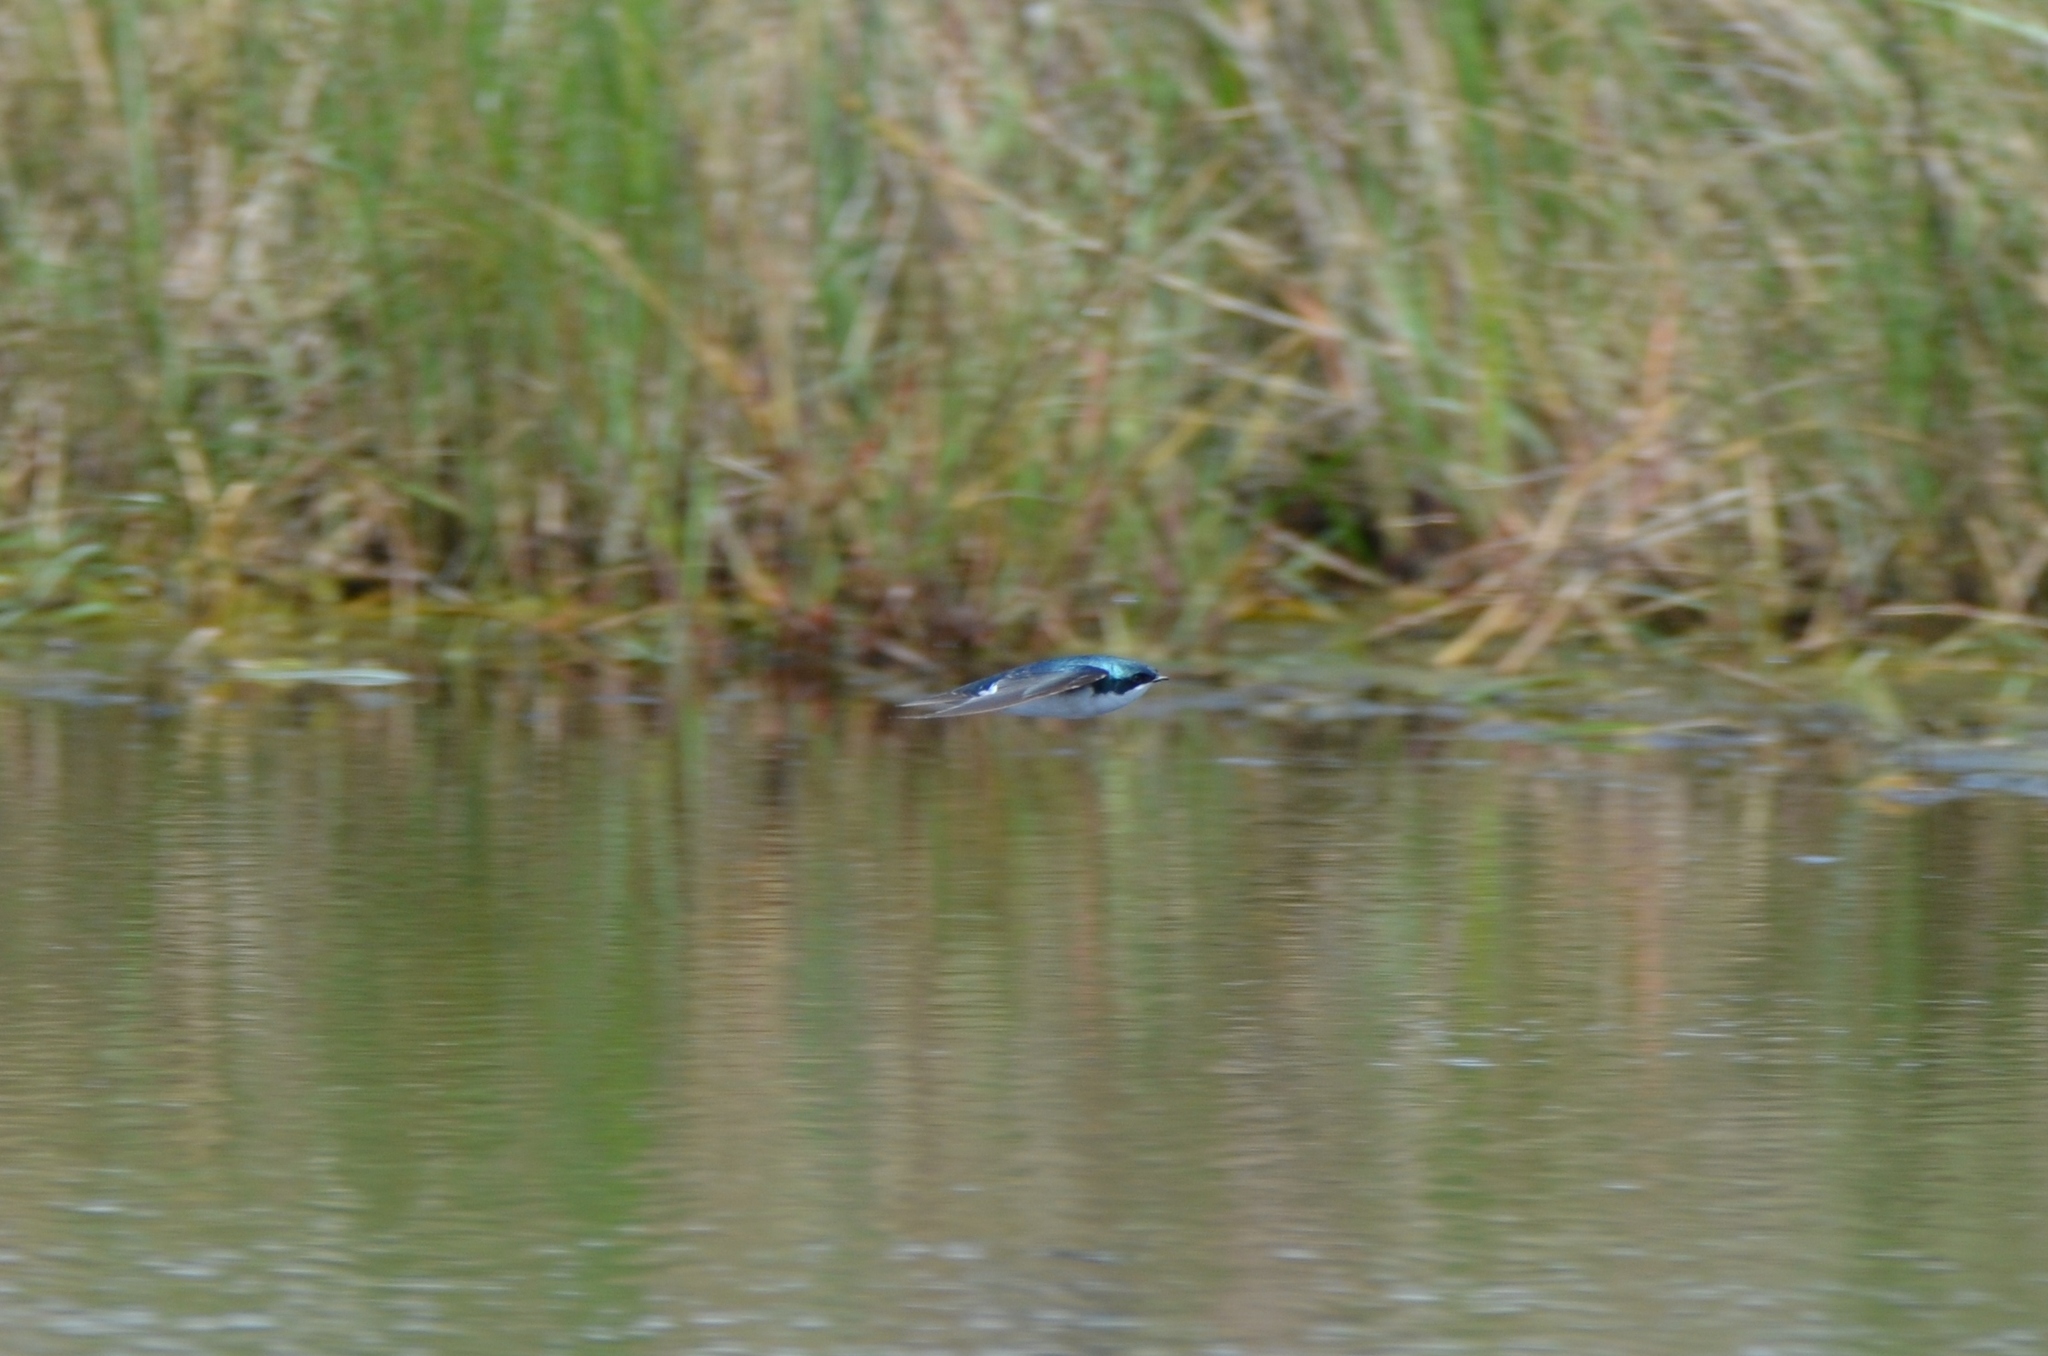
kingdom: Animalia
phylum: Chordata
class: Aves
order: Passeriformes
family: Hirundinidae
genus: Tachycineta
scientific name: Tachycineta bicolor
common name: Tree swallow
